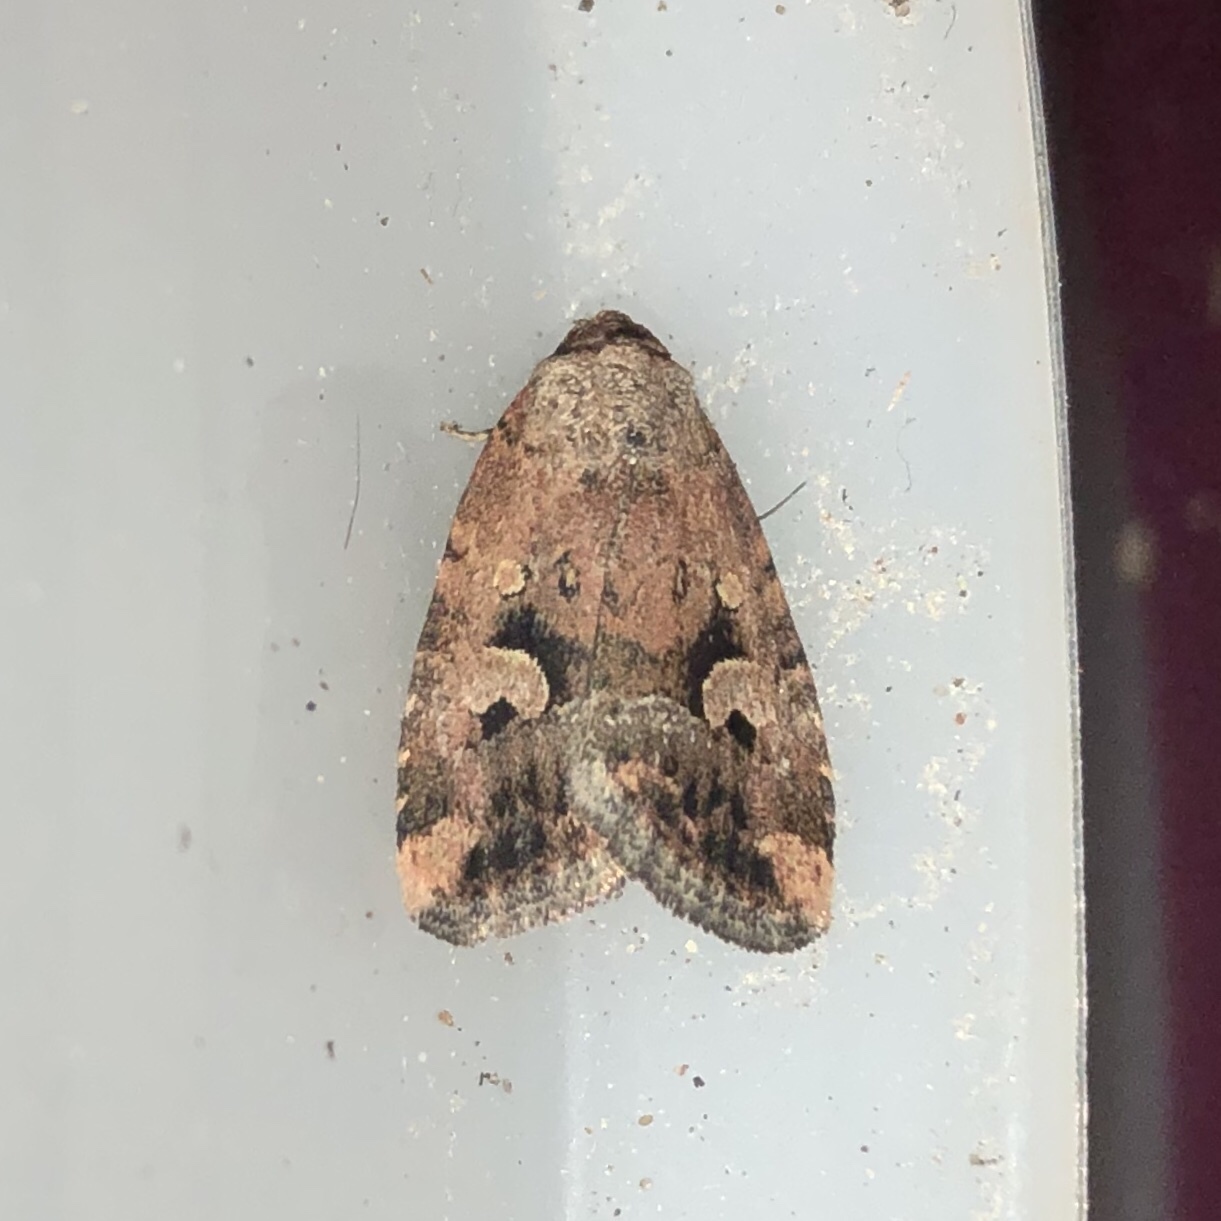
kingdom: Animalia
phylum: Arthropoda
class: Insecta
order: Lepidoptera
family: Noctuidae
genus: Elaphria
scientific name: Elaphria alapallida
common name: Pale-winged midget
